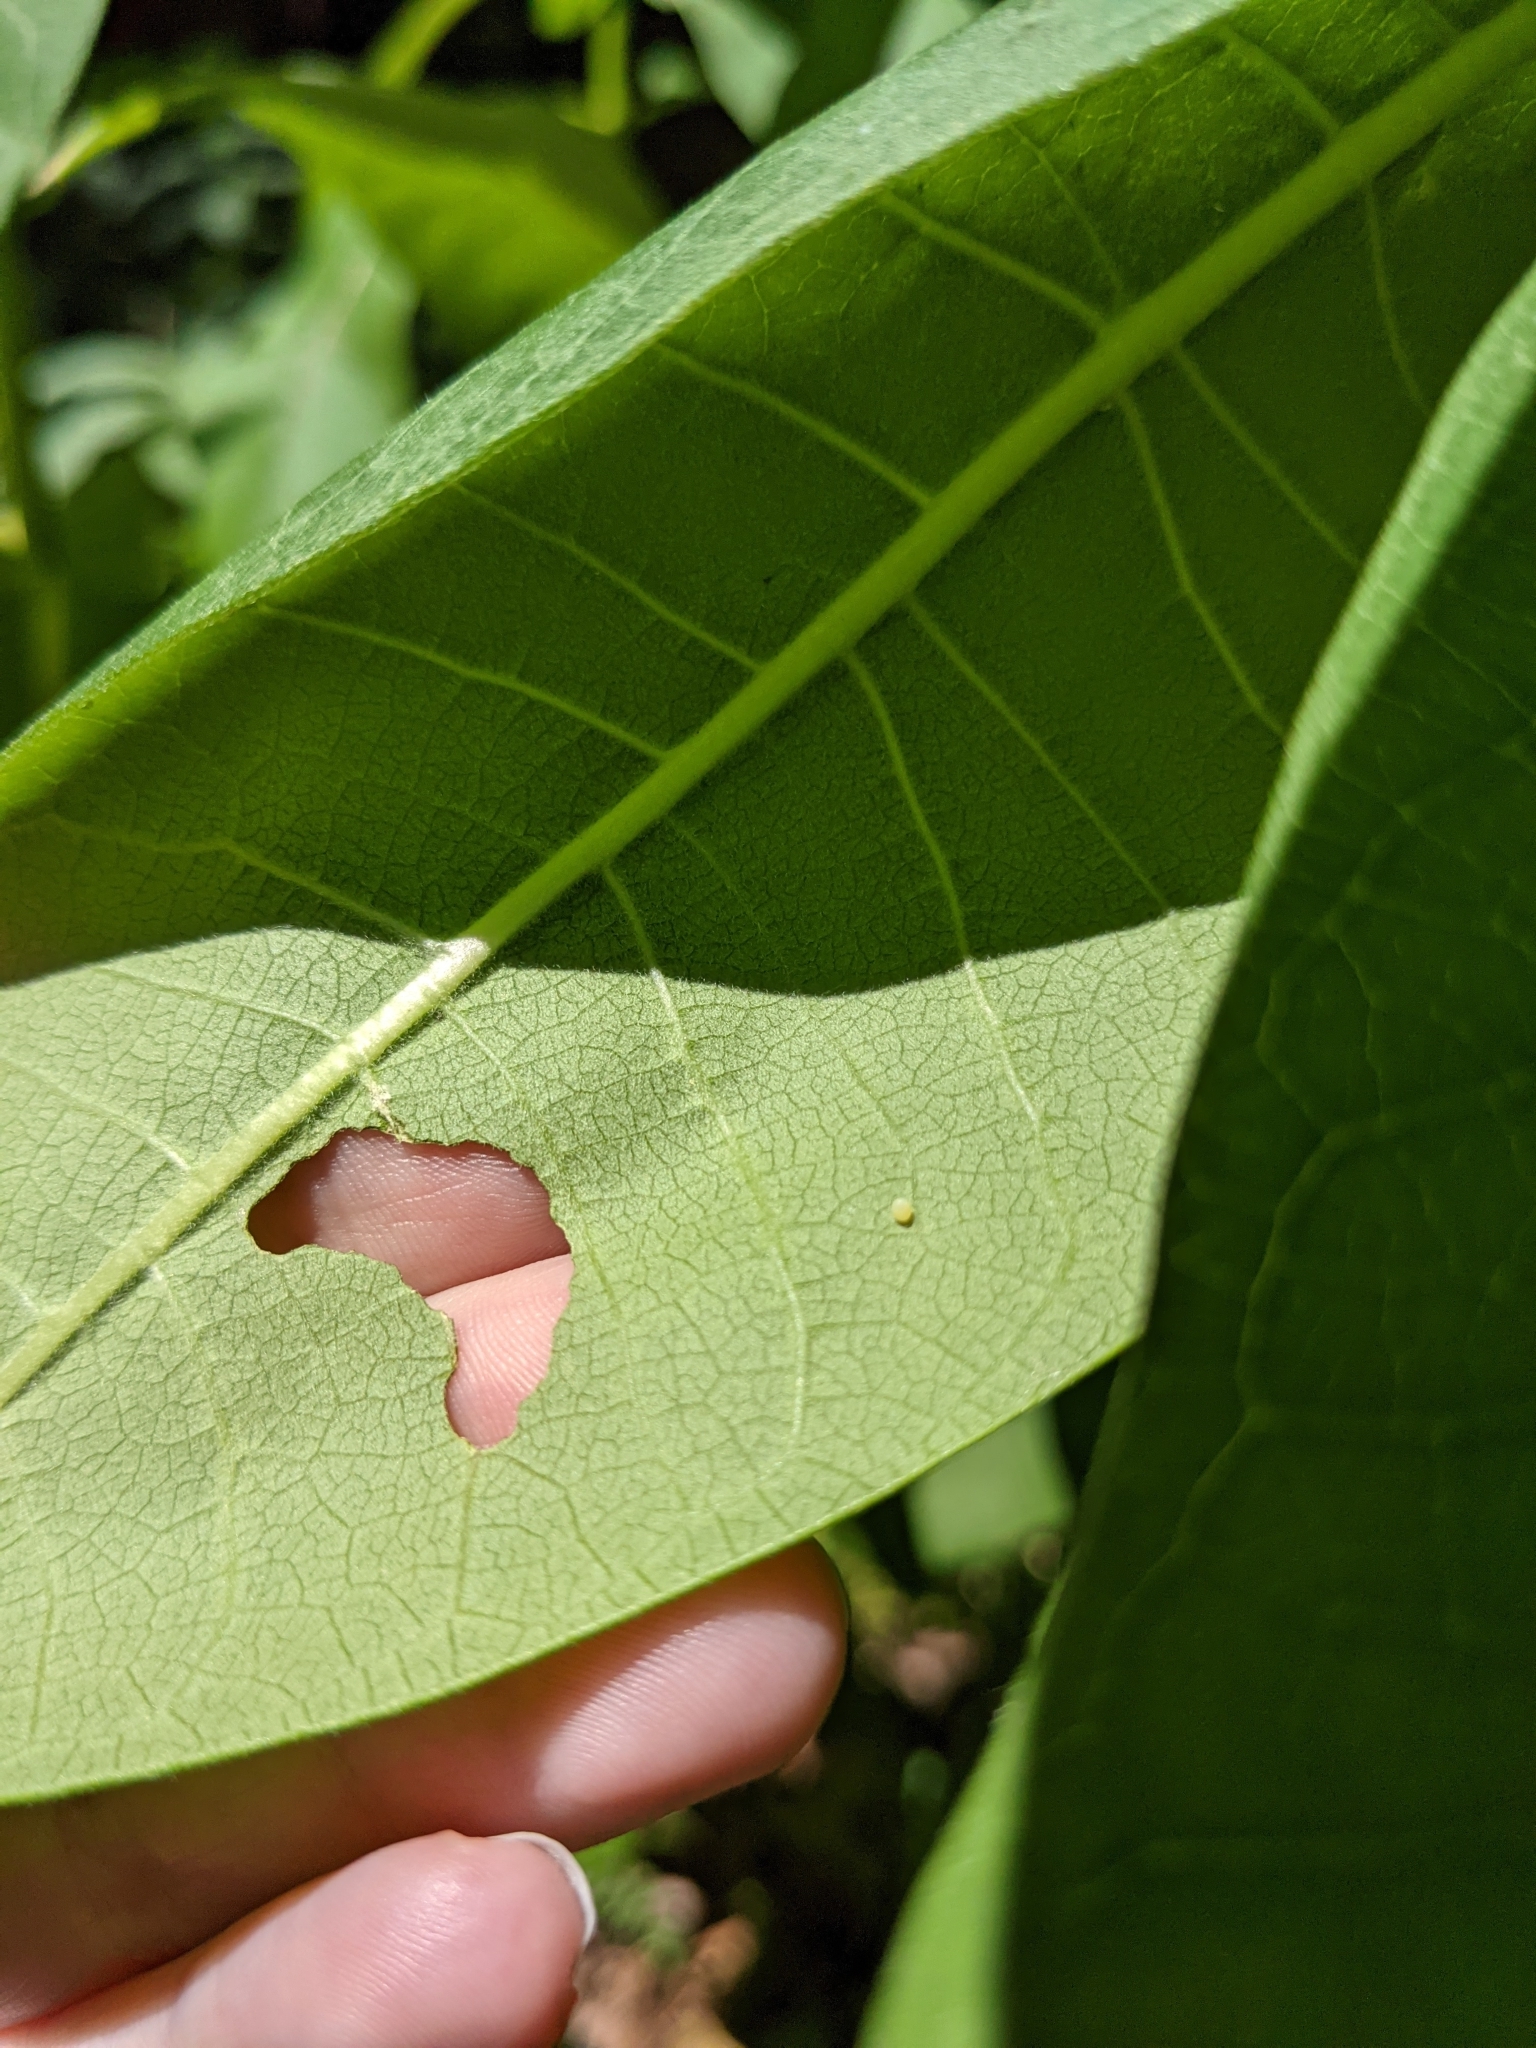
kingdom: Animalia
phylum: Arthropoda
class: Insecta
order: Lepidoptera
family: Nymphalidae
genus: Danaus
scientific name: Danaus plexippus
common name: Monarch
